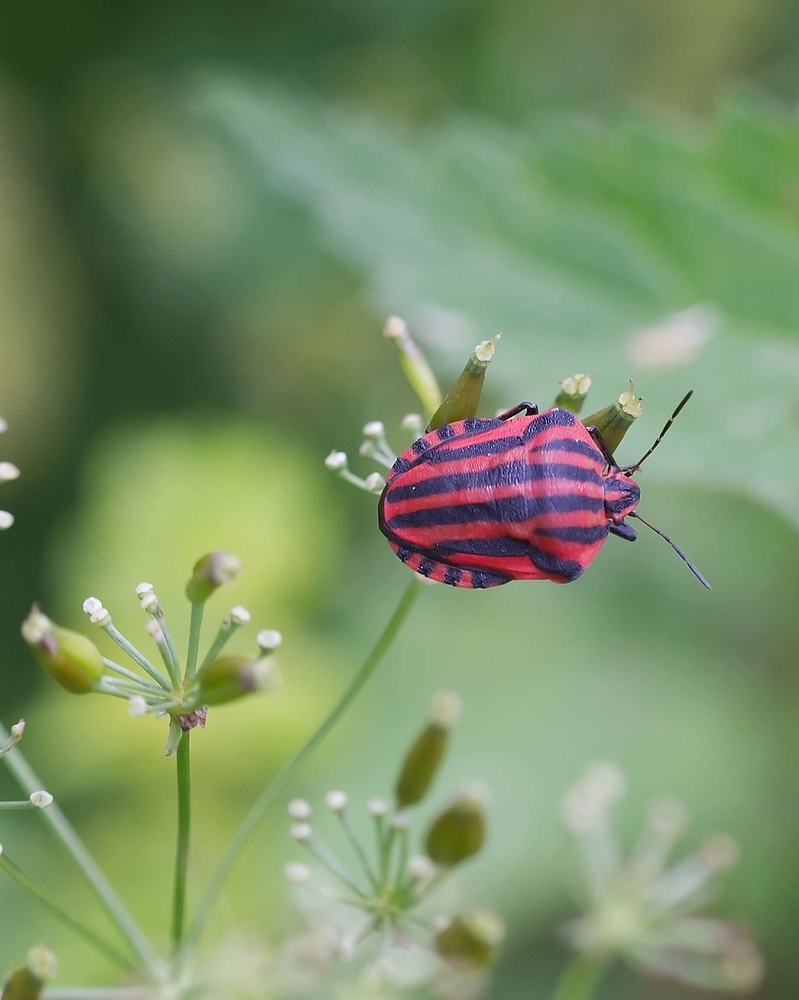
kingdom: Animalia
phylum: Arthropoda
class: Insecta
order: Hemiptera
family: Pentatomidae
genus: Graphosoma
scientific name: Graphosoma italicum
